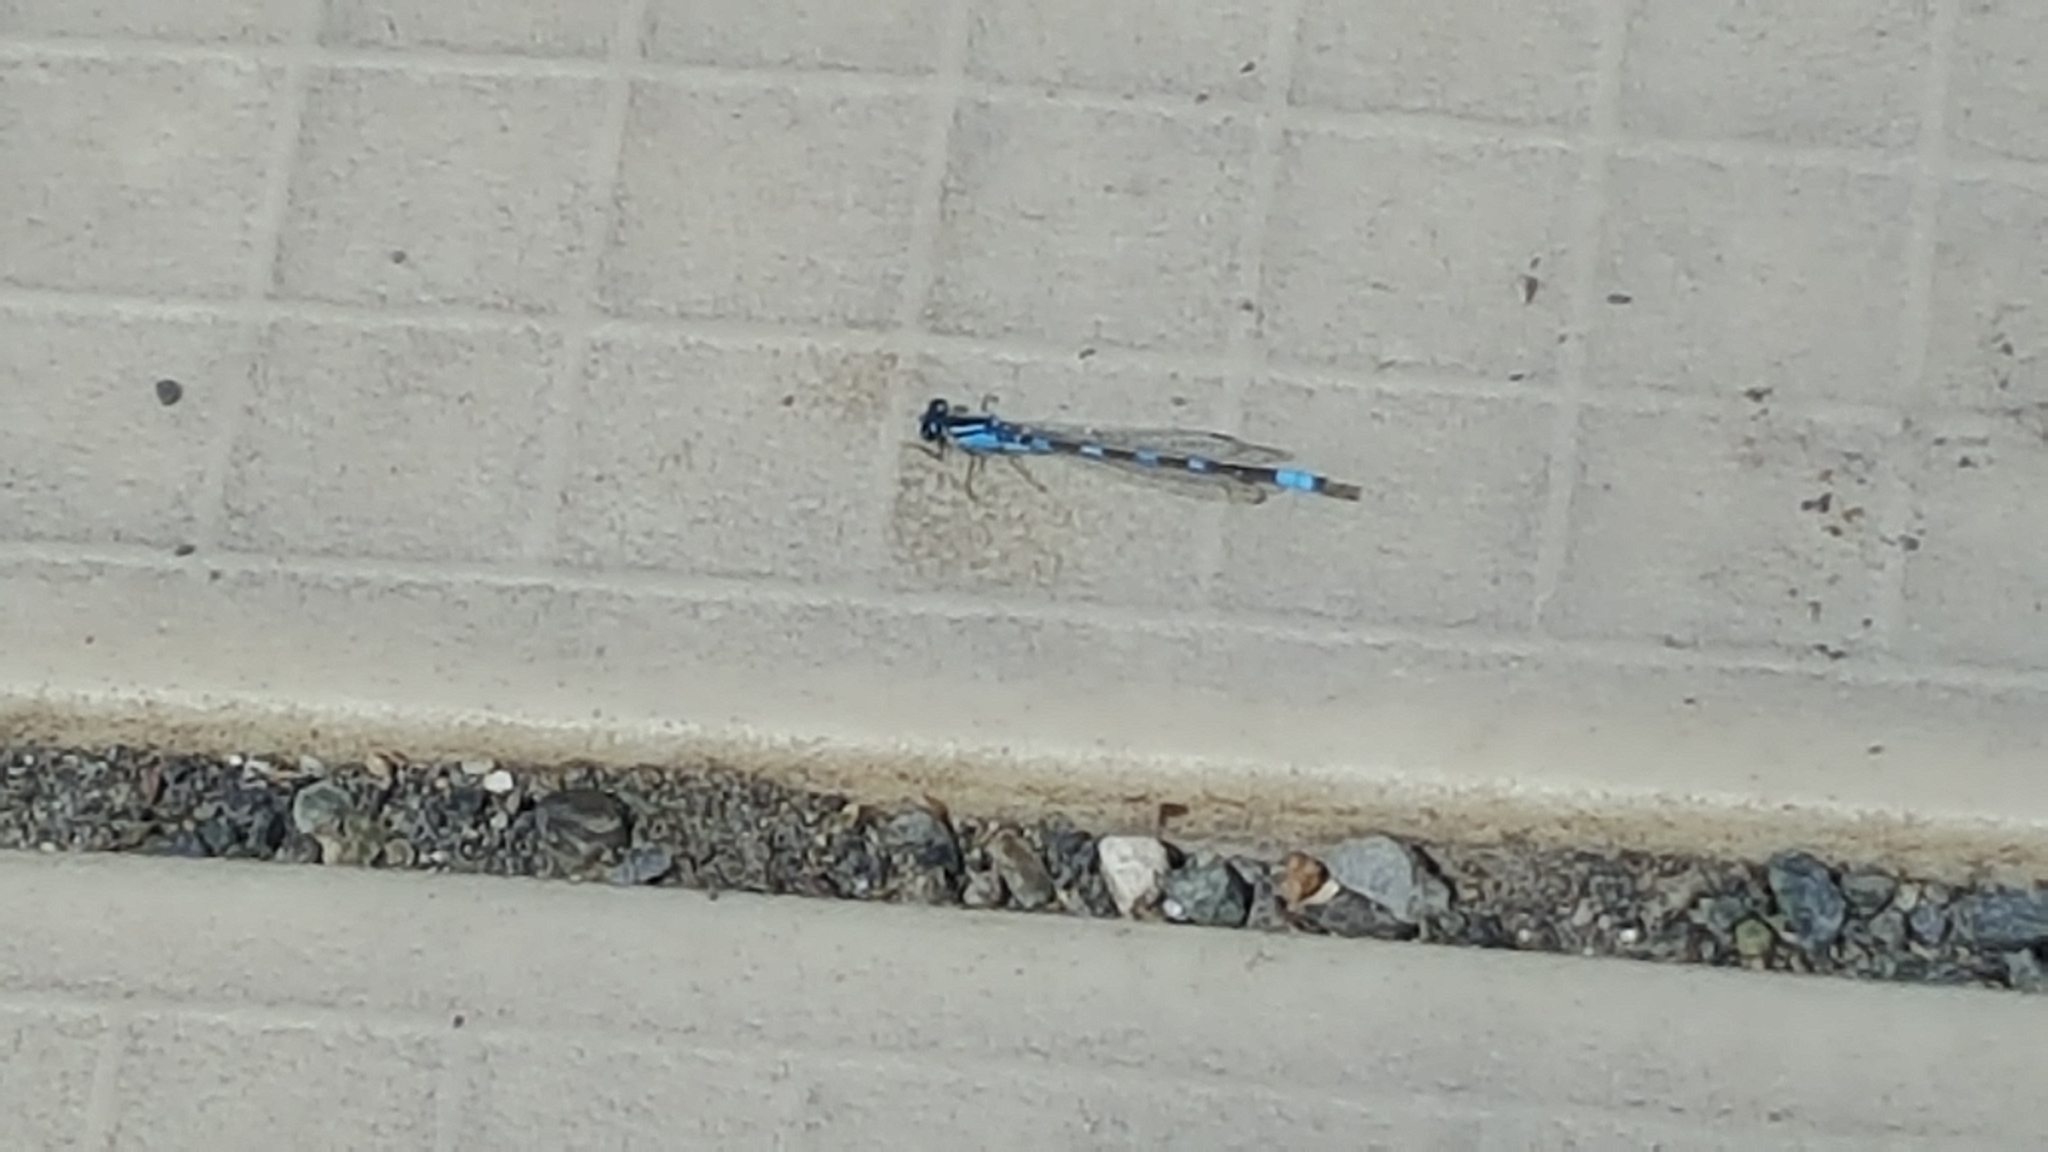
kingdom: Animalia
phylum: Arthropoda
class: Insecta
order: Odonata
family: Coenagrionidae
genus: Enallagma
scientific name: Enallagma carunculatum
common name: Tule bluet
